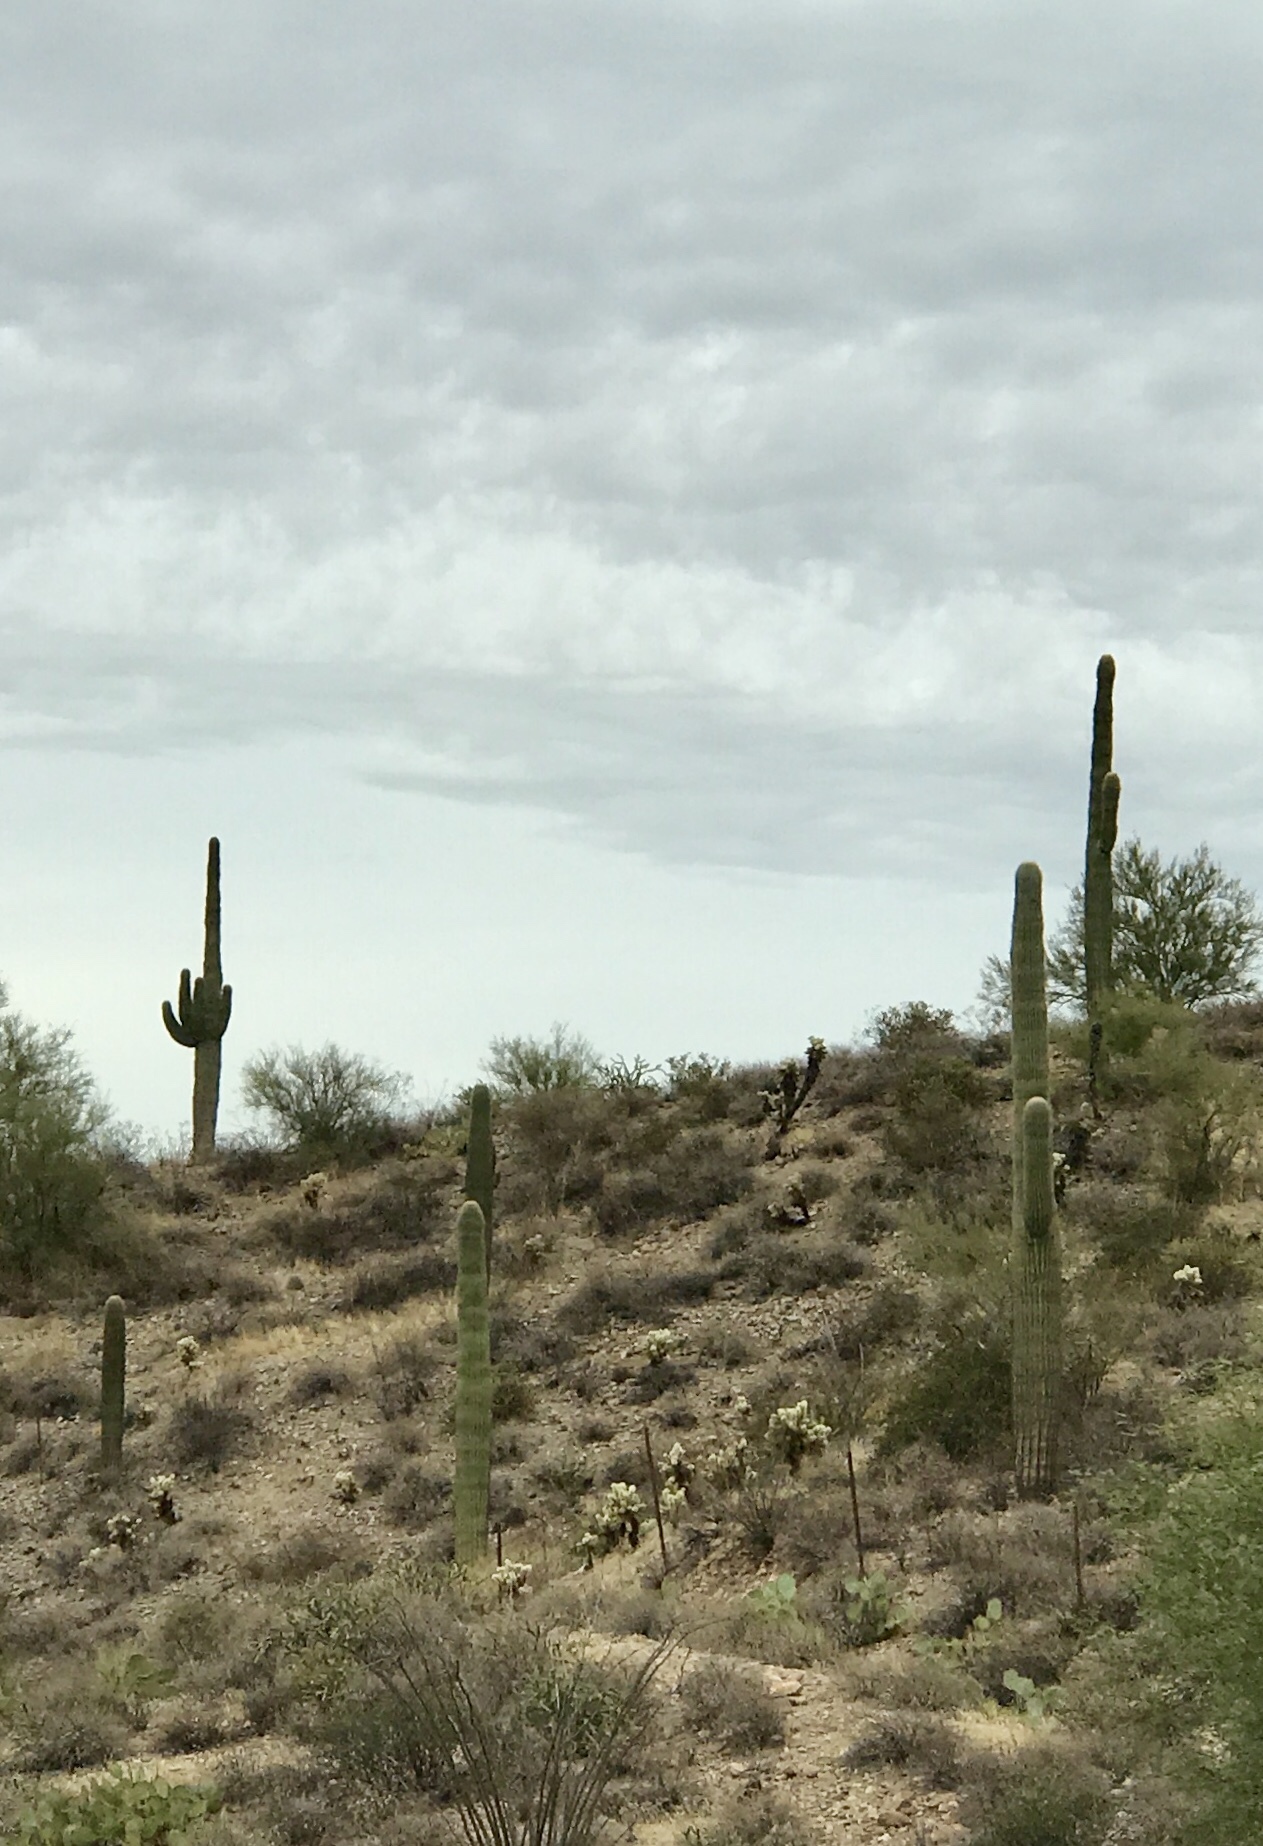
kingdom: Plantae
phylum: Tracheophyta
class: Magnoliopsida
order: Caryophyllales
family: Cactaceae
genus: Carnegiea
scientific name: Carnegiea gigantea
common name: Saguaro
